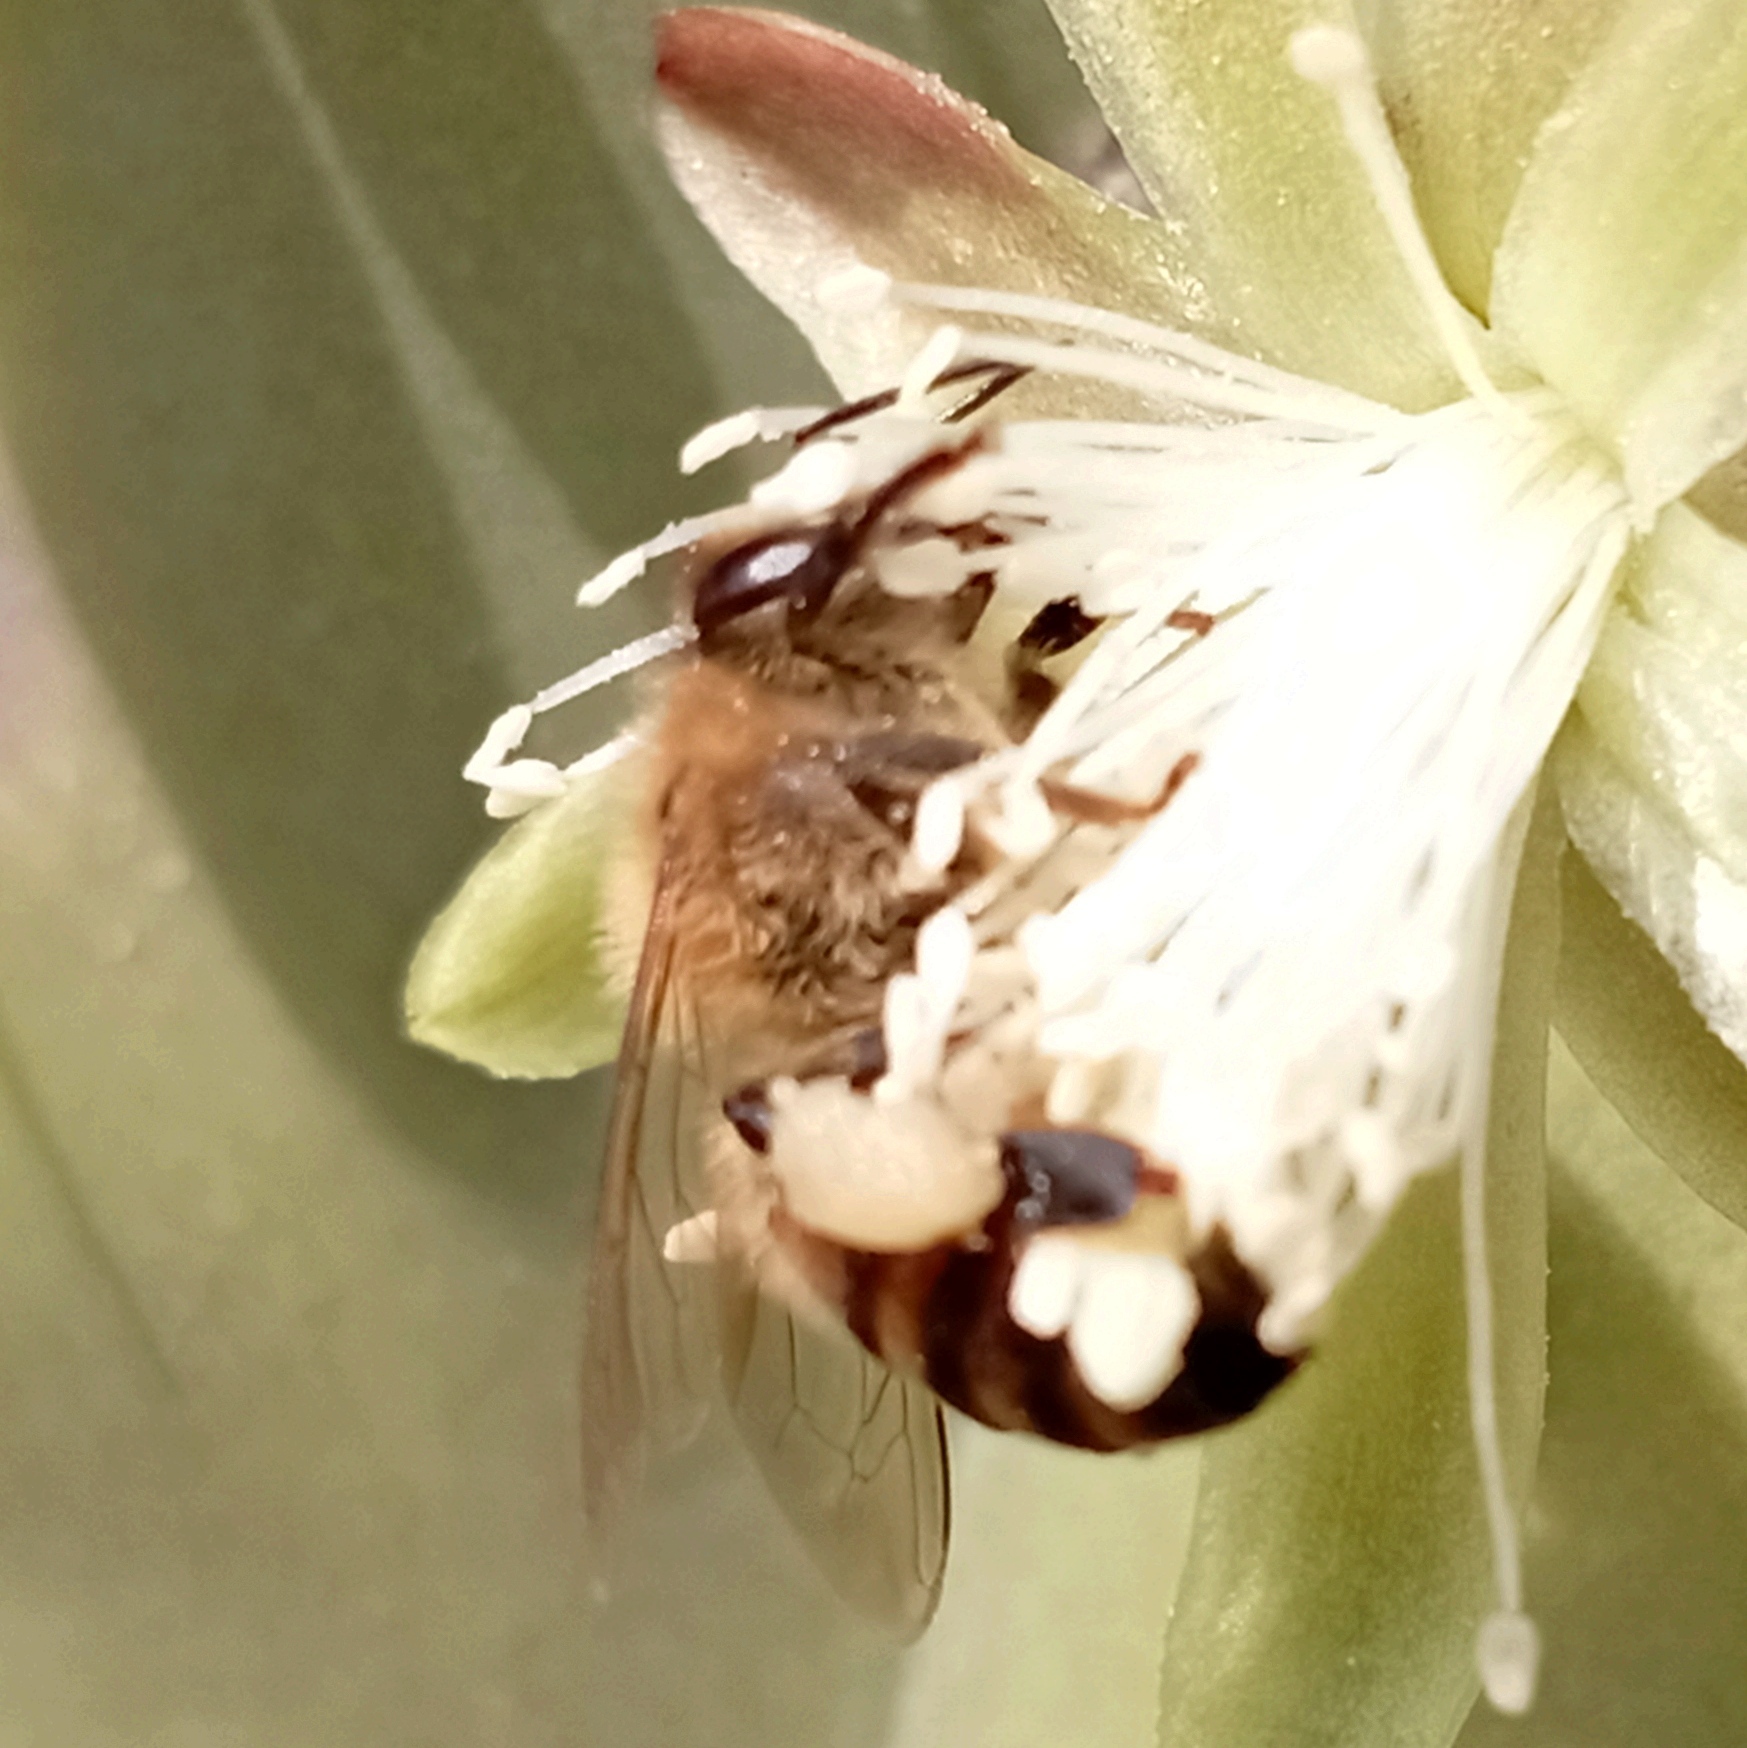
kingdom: Animalia
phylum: Arthropoda
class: Insecta
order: Hymenoptera
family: Apidae
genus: Apis
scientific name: Apis mellifera
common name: Honey bee
